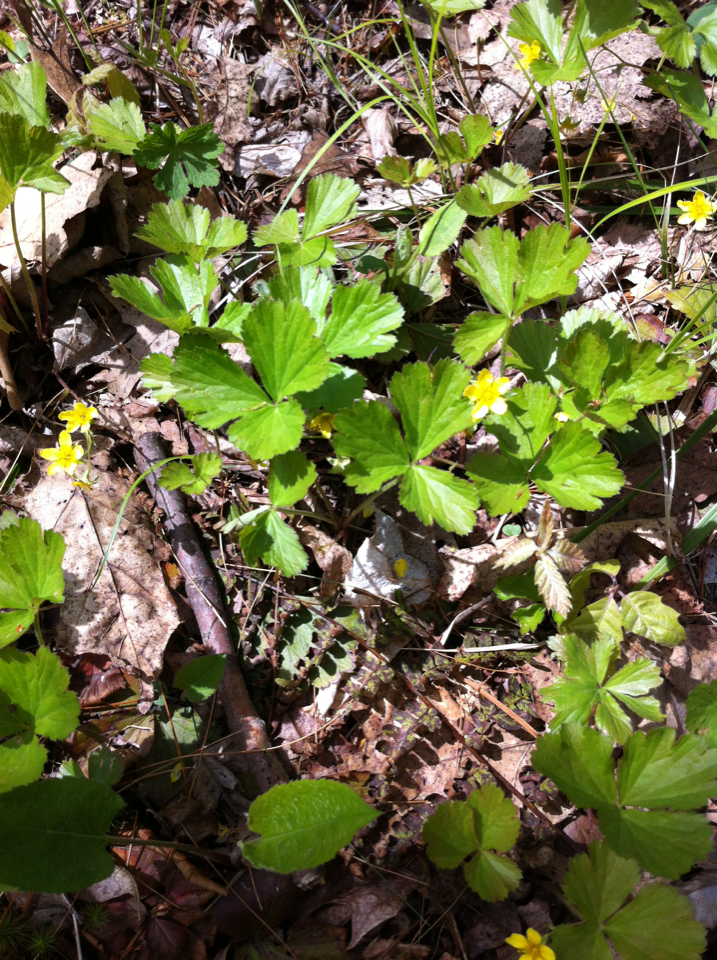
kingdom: Plantae
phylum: Tracheophyta
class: Magnoliopsida
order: Rosales
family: Rosaceae
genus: Geum
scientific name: Geum fragarioides
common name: Appalachian barren strawberry
